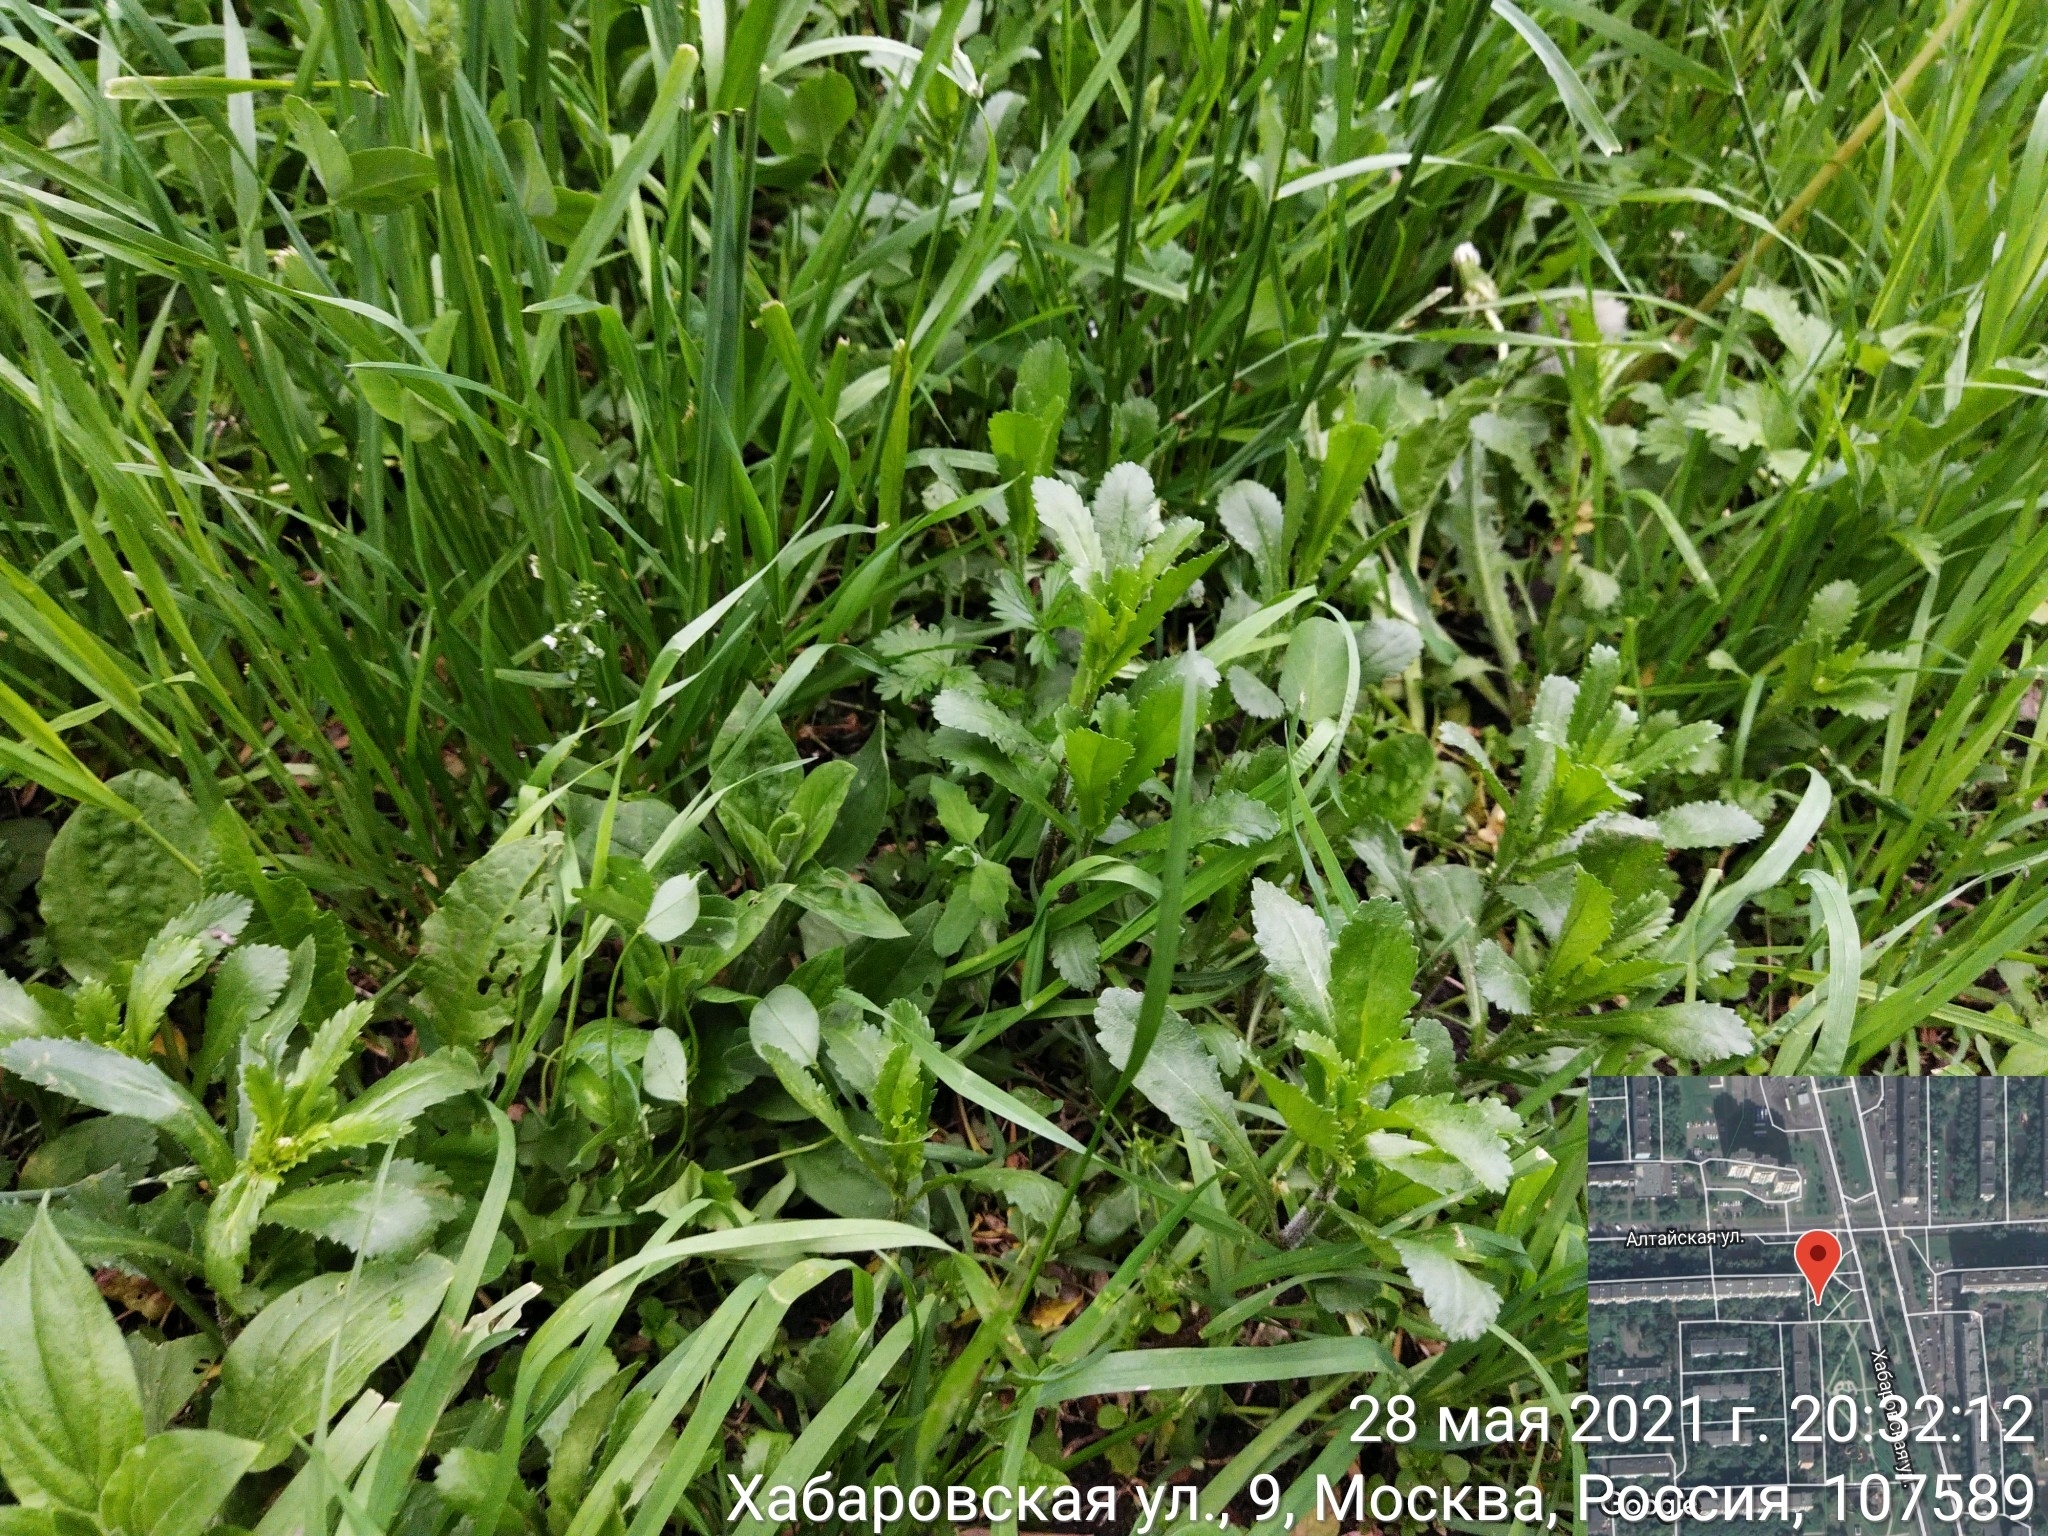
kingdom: Plantae
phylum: Tracheophyta
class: Magnoliopsida
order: Asterales
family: Asteraceae
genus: Leucanthemum
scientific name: Leucanthemum vulgare
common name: Oxeye daisy
